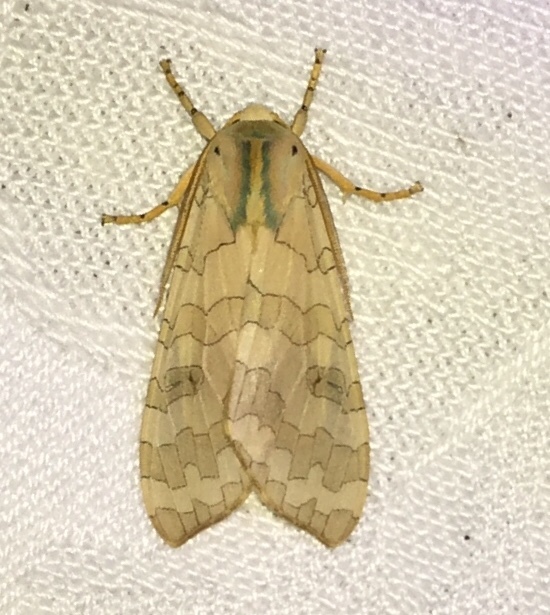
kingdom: Animalia
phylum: Arthropoda
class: Insecta
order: Lepidoptera
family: Erebidae
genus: Halysidota
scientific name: Halysidota
